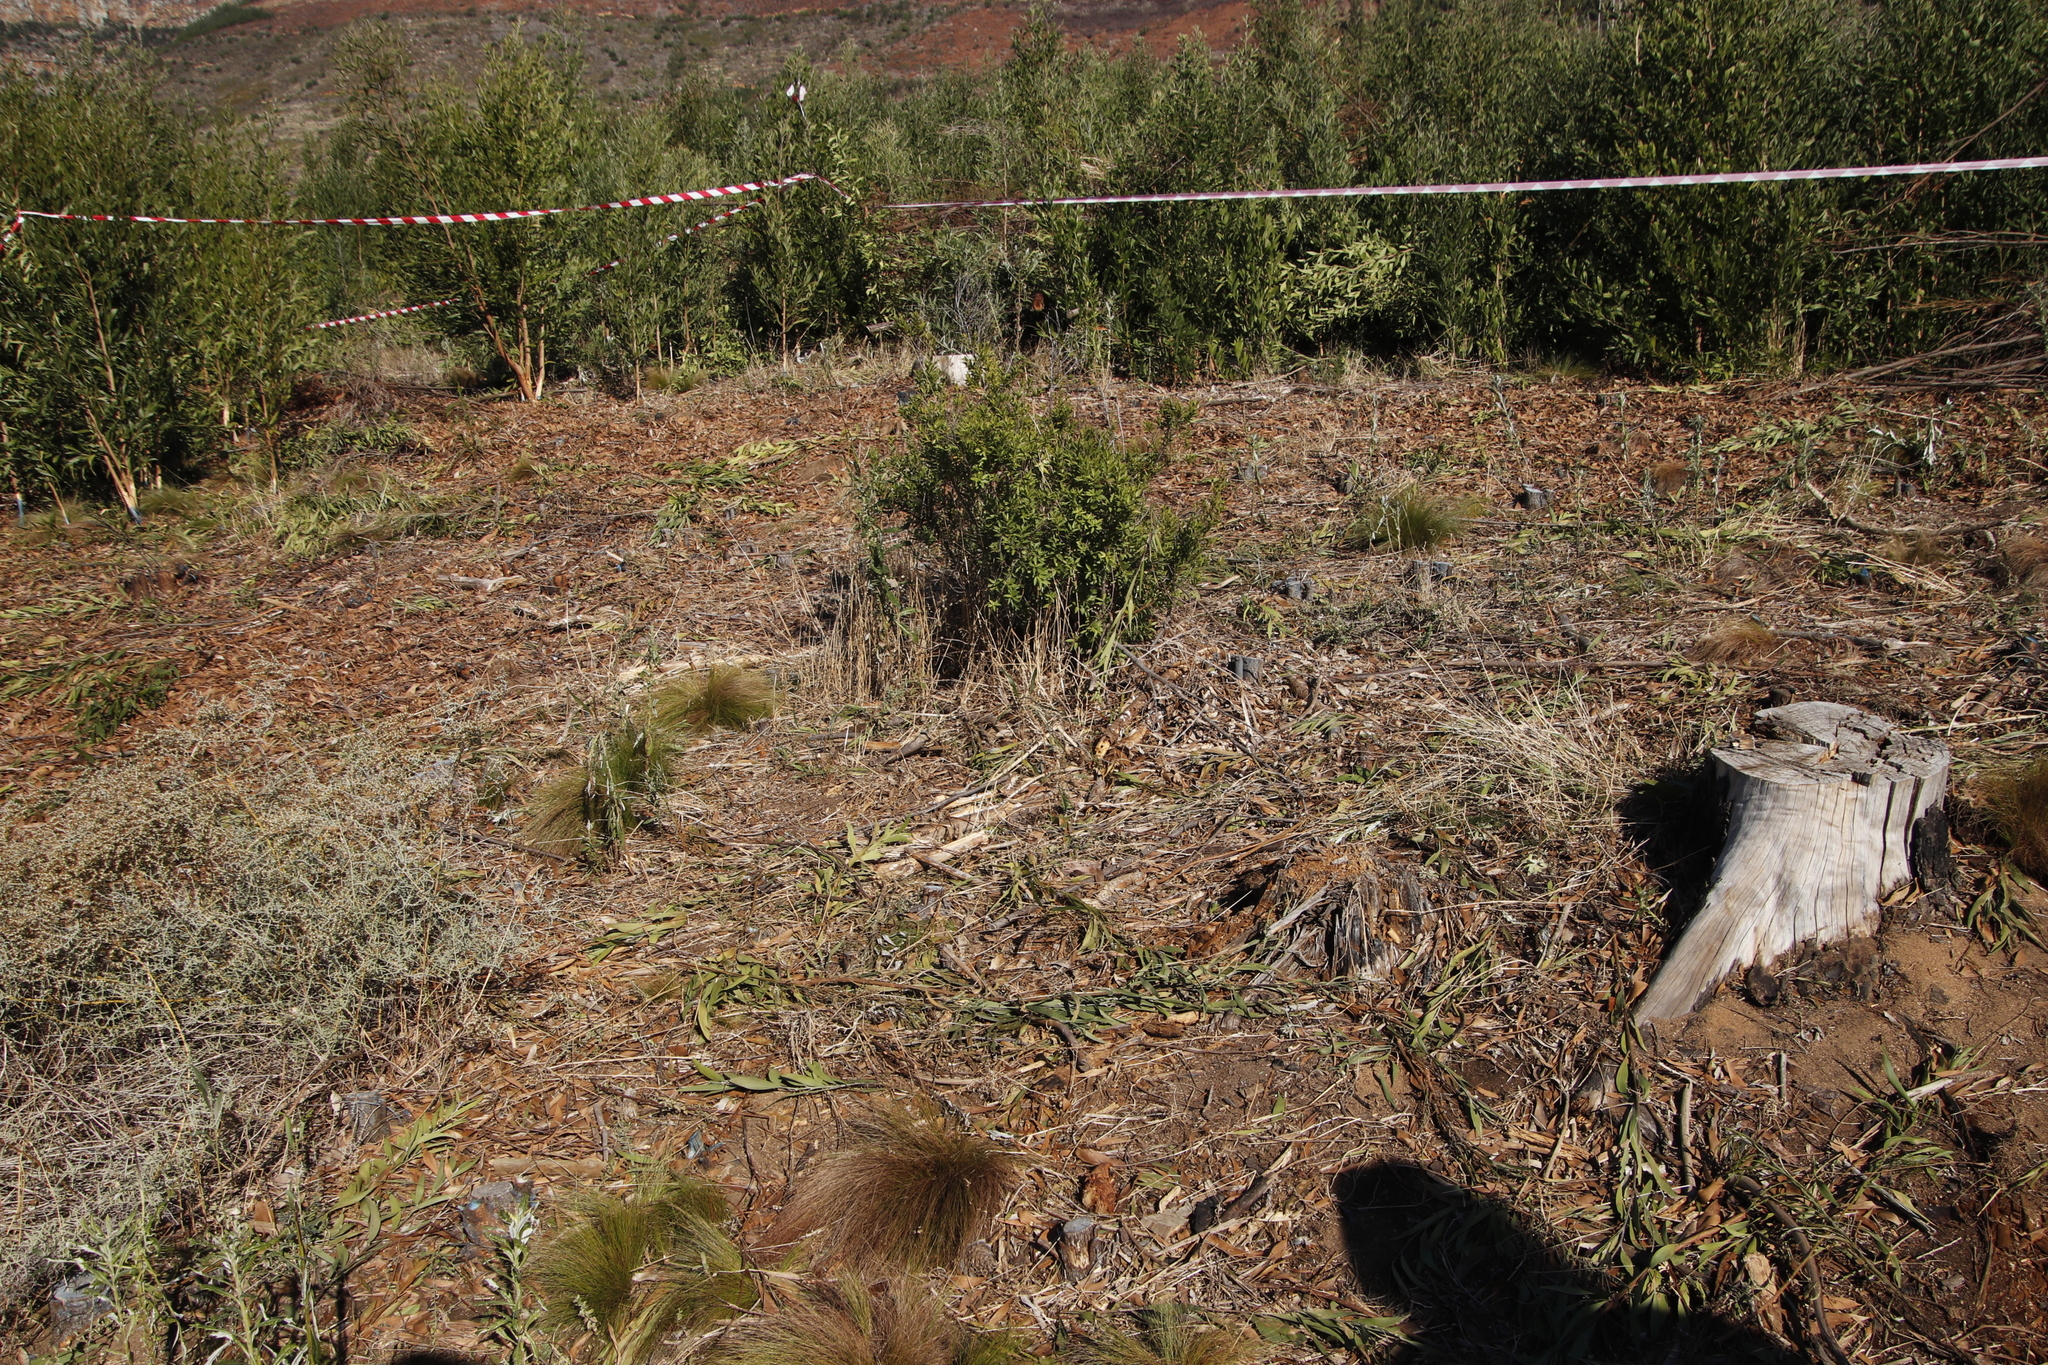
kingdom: Plantae
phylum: Tracheophyta
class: Magnoliopsida
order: Malpighiales
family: Achariaceae
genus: Kiggelaria
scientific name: Kiggelaria africana
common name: Wild peach
